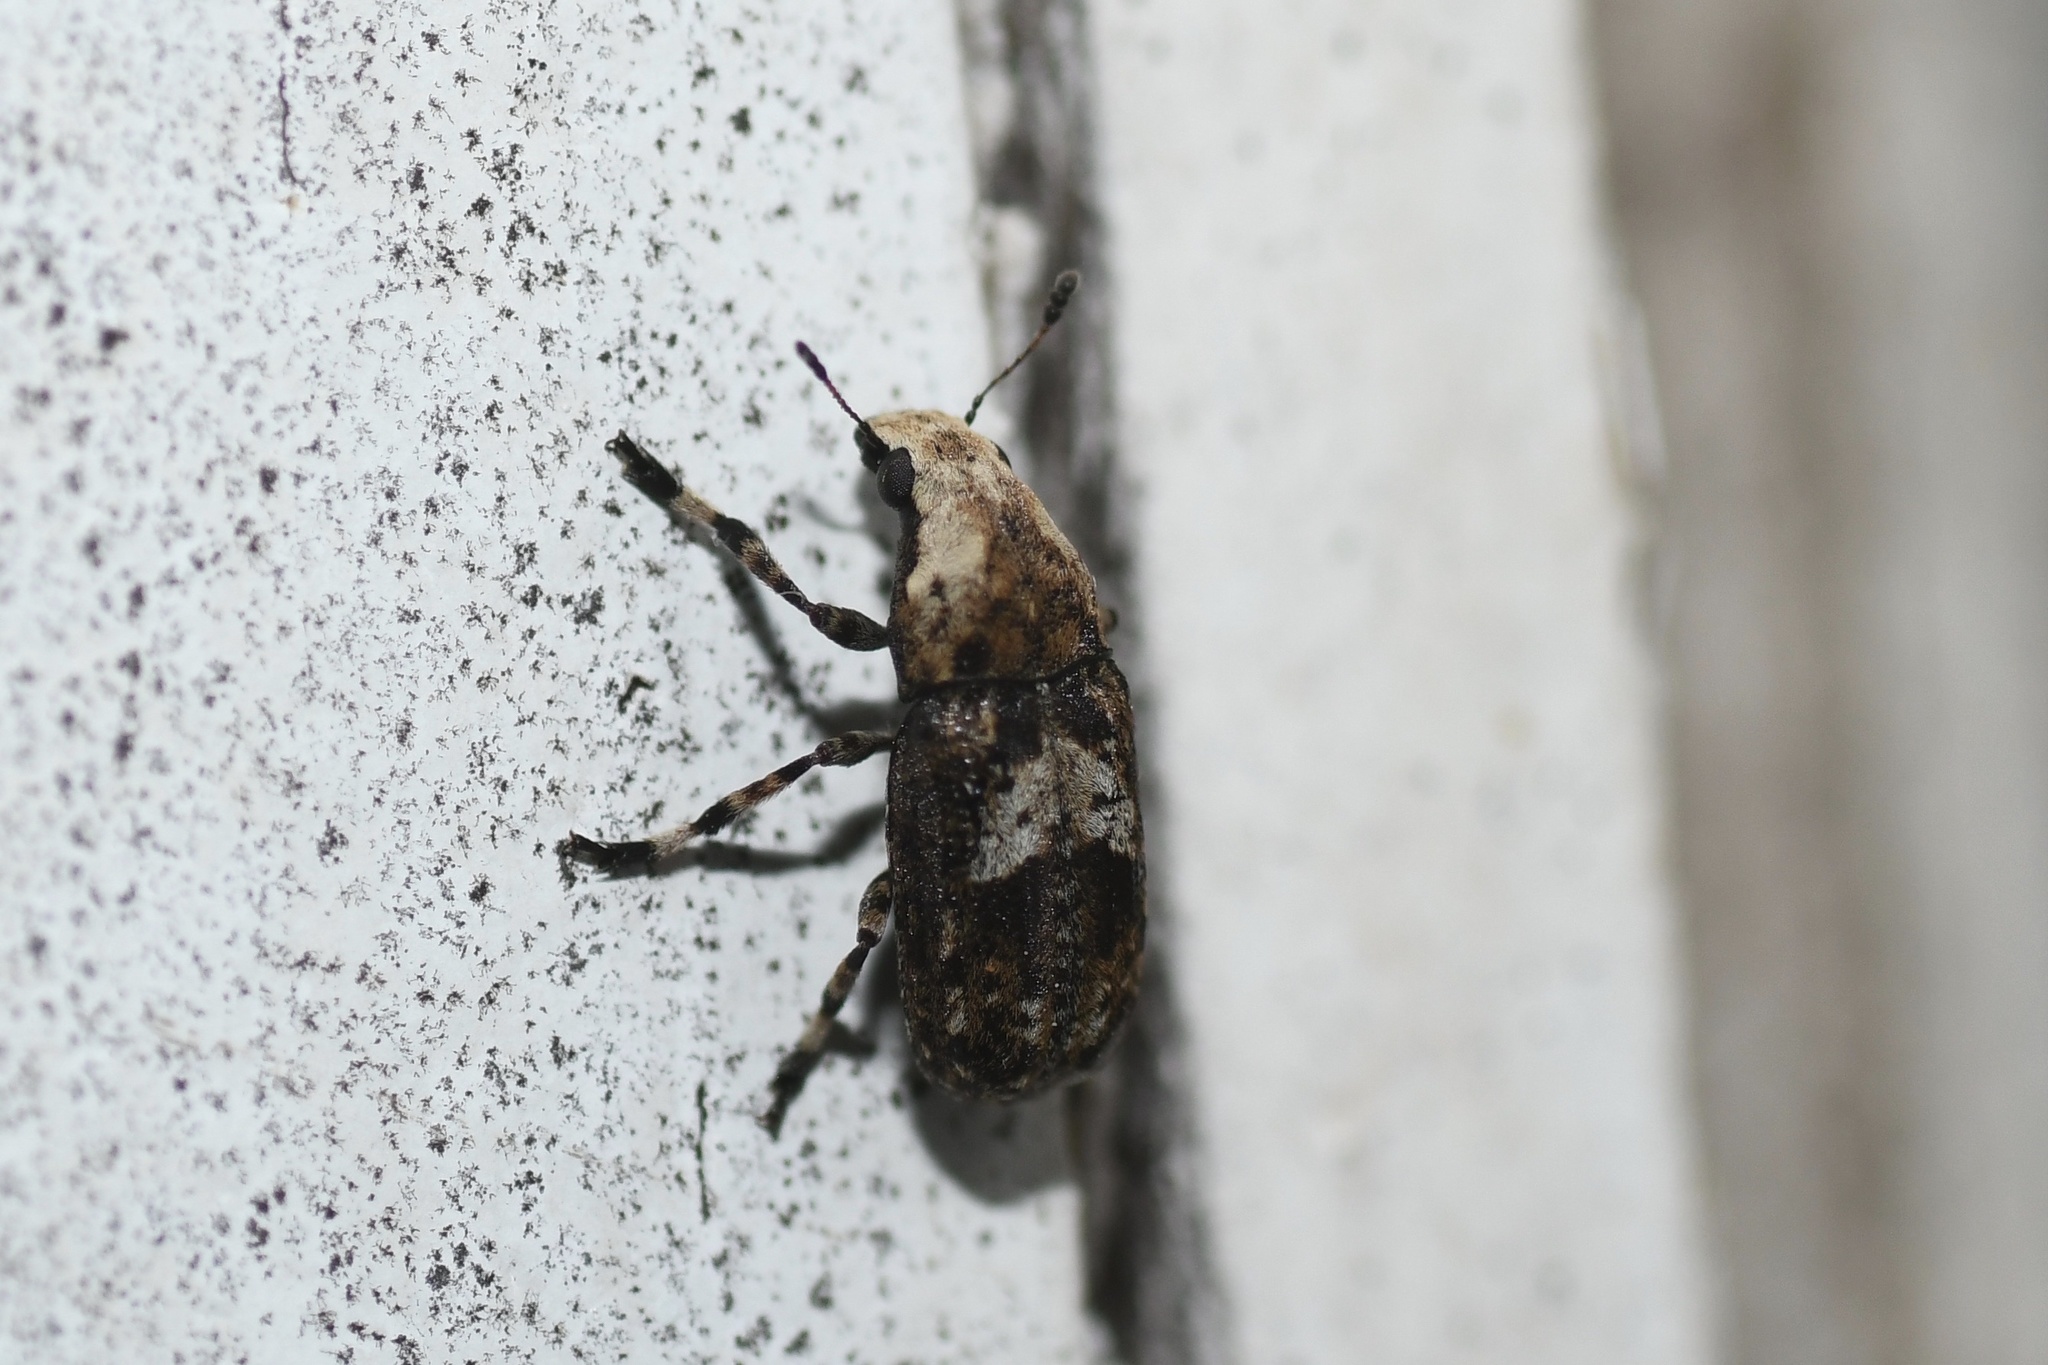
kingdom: Animalia
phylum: Arthropoda
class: Insecta
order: Coleoptera
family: Anthribidae
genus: Euparius
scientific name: Euparius paganus
